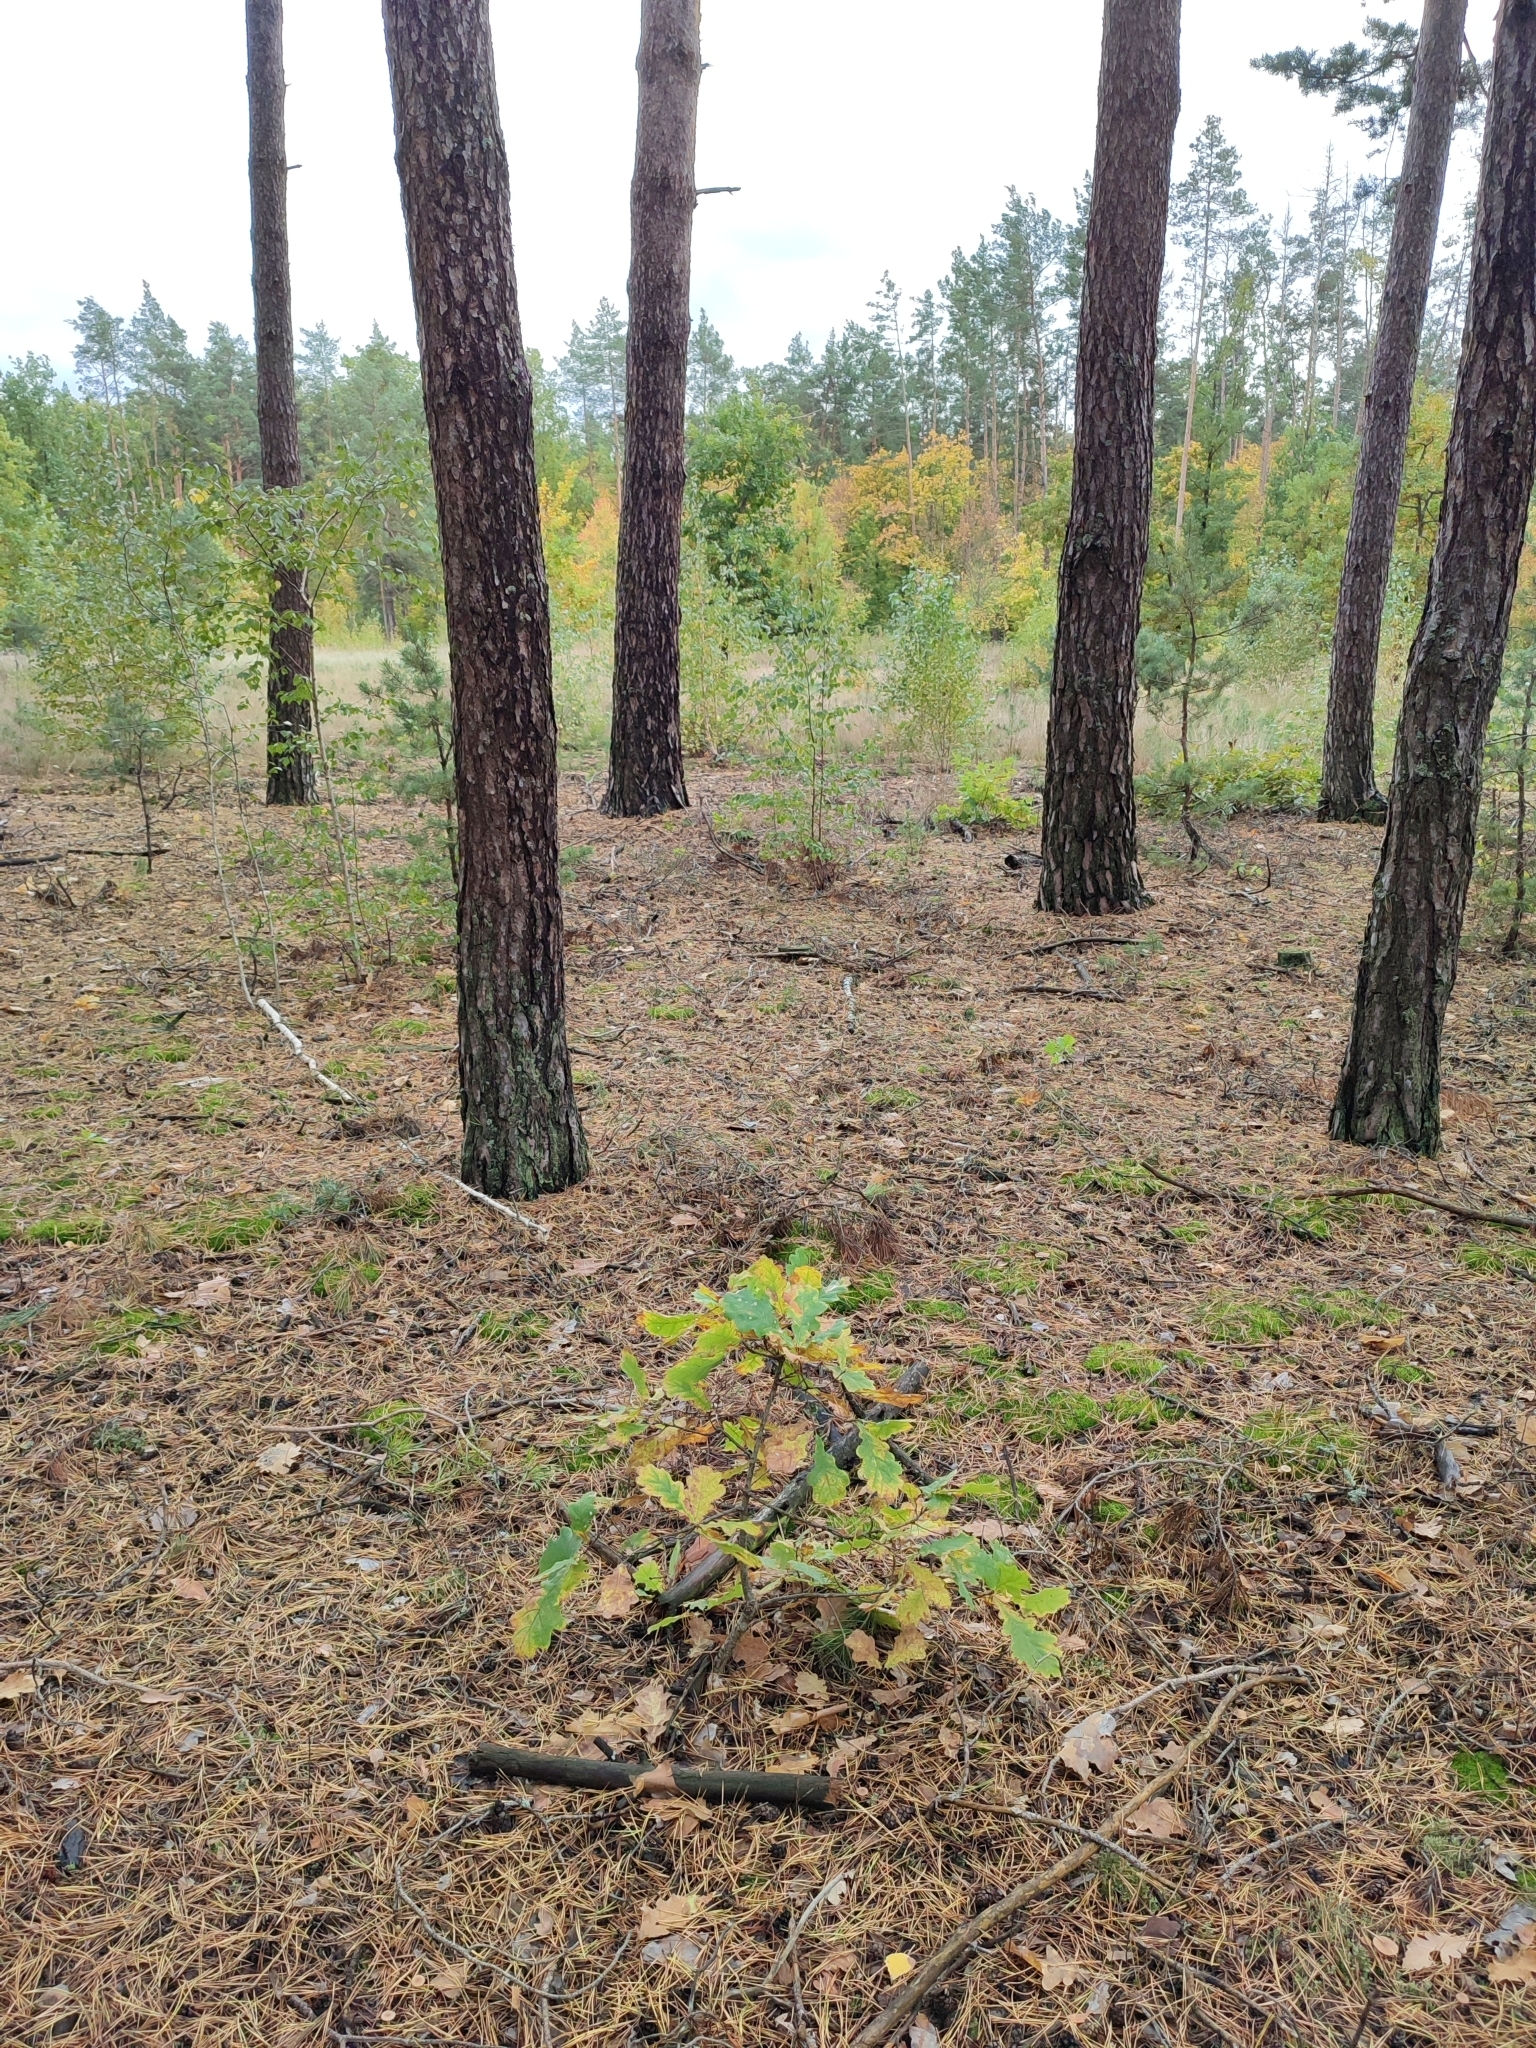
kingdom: Plantae
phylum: Tracheophyta
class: Magnoliopsida
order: Fagales
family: Fagaceae
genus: Quercus
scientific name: Quercus robur
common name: Pedunculate oak
